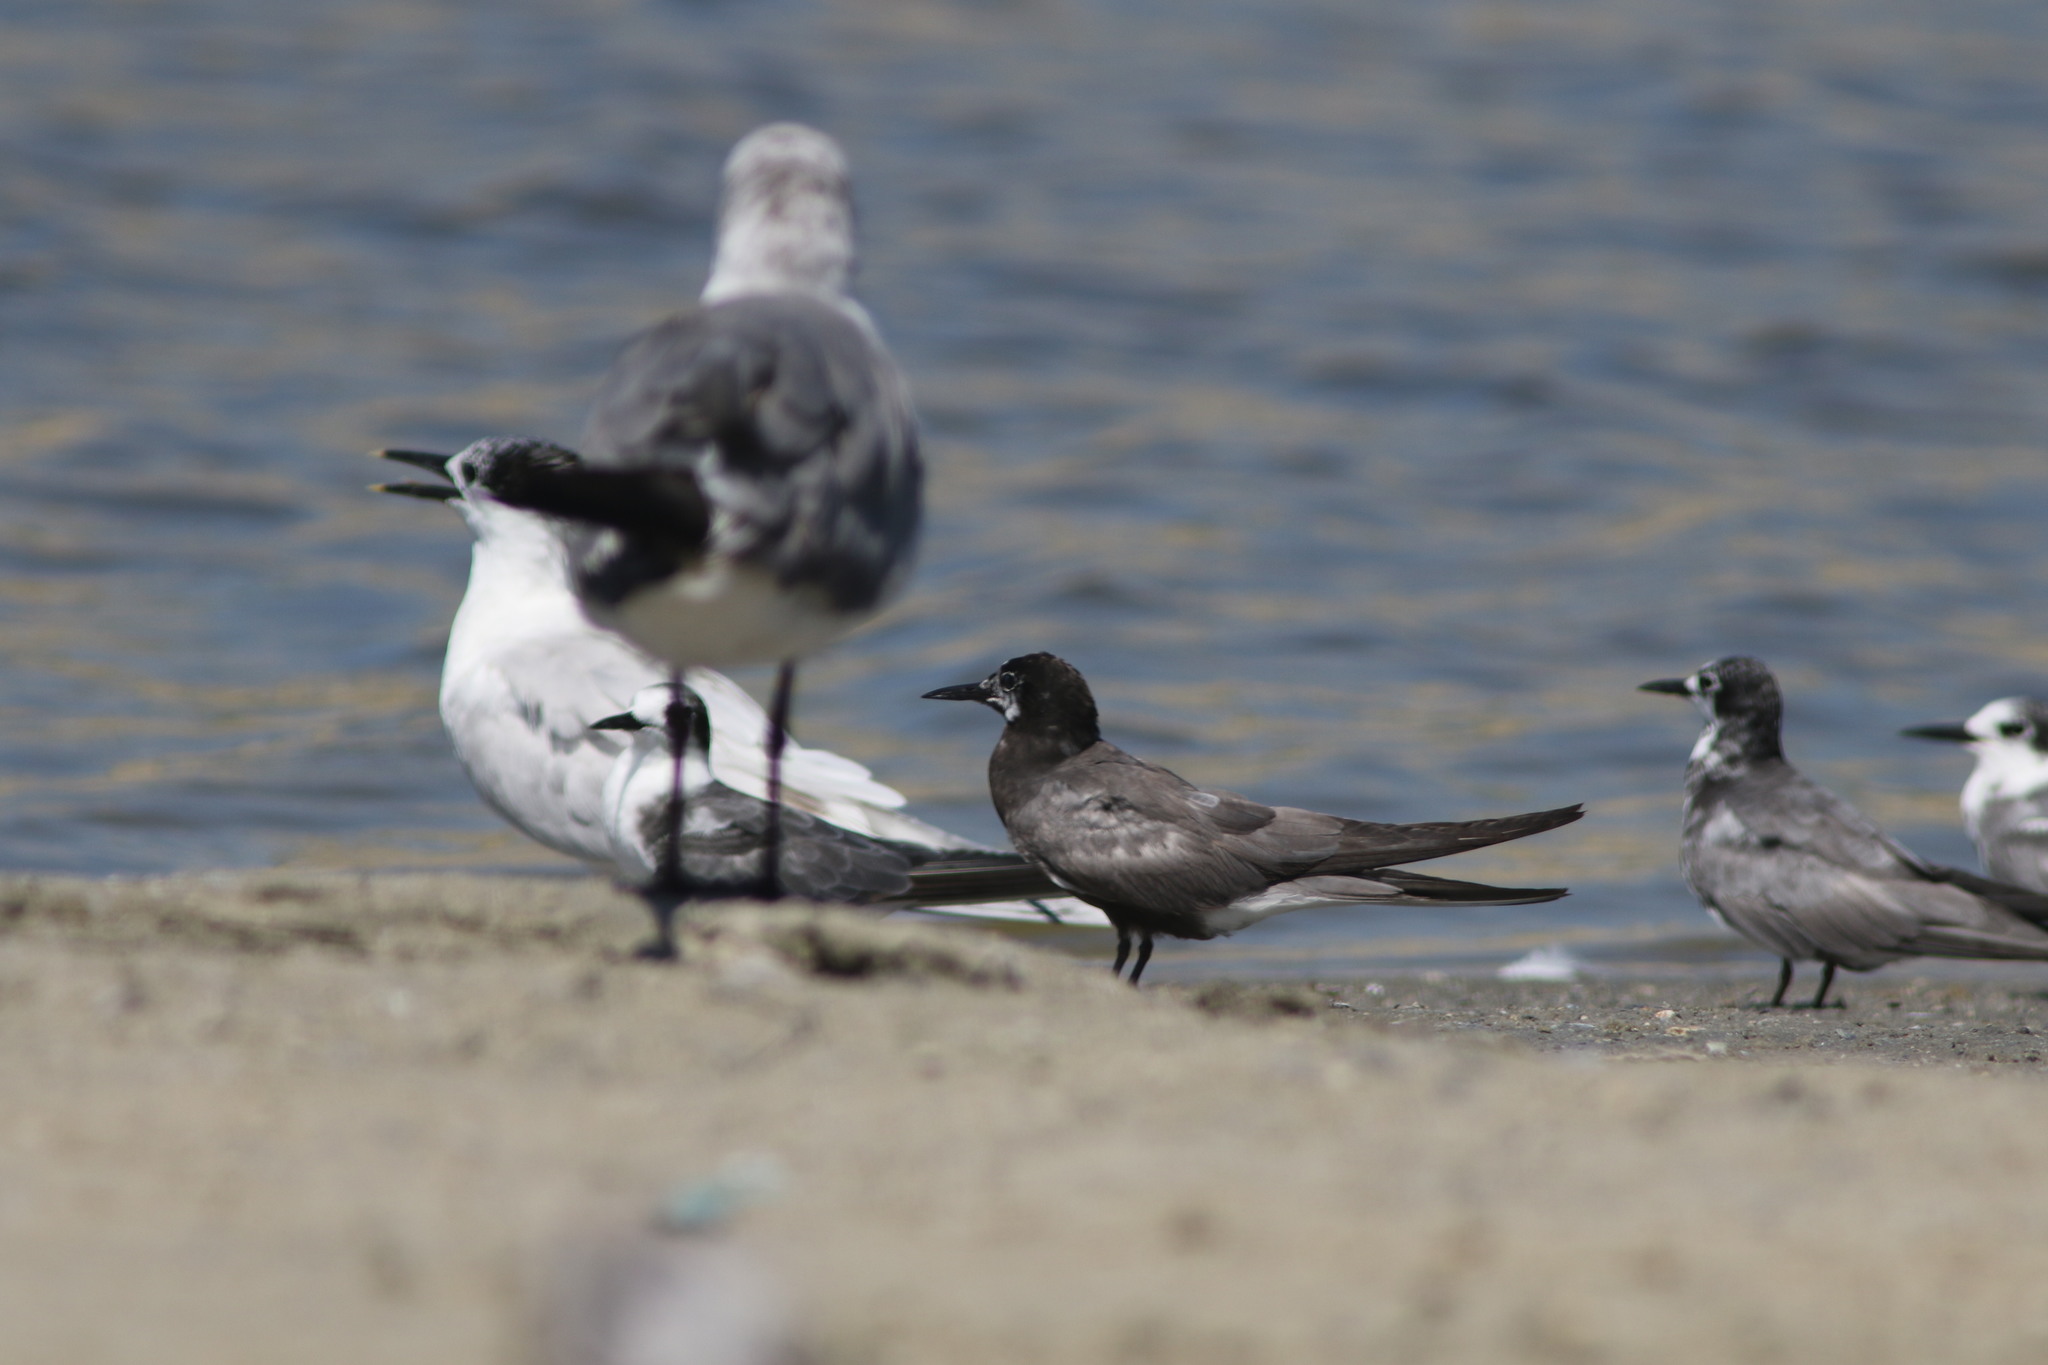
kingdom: Animalia
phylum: Chordata
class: Aves
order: Charadriiformes
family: Laridae
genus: Chlidonias
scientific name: Chlidonias niger
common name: Black tern
